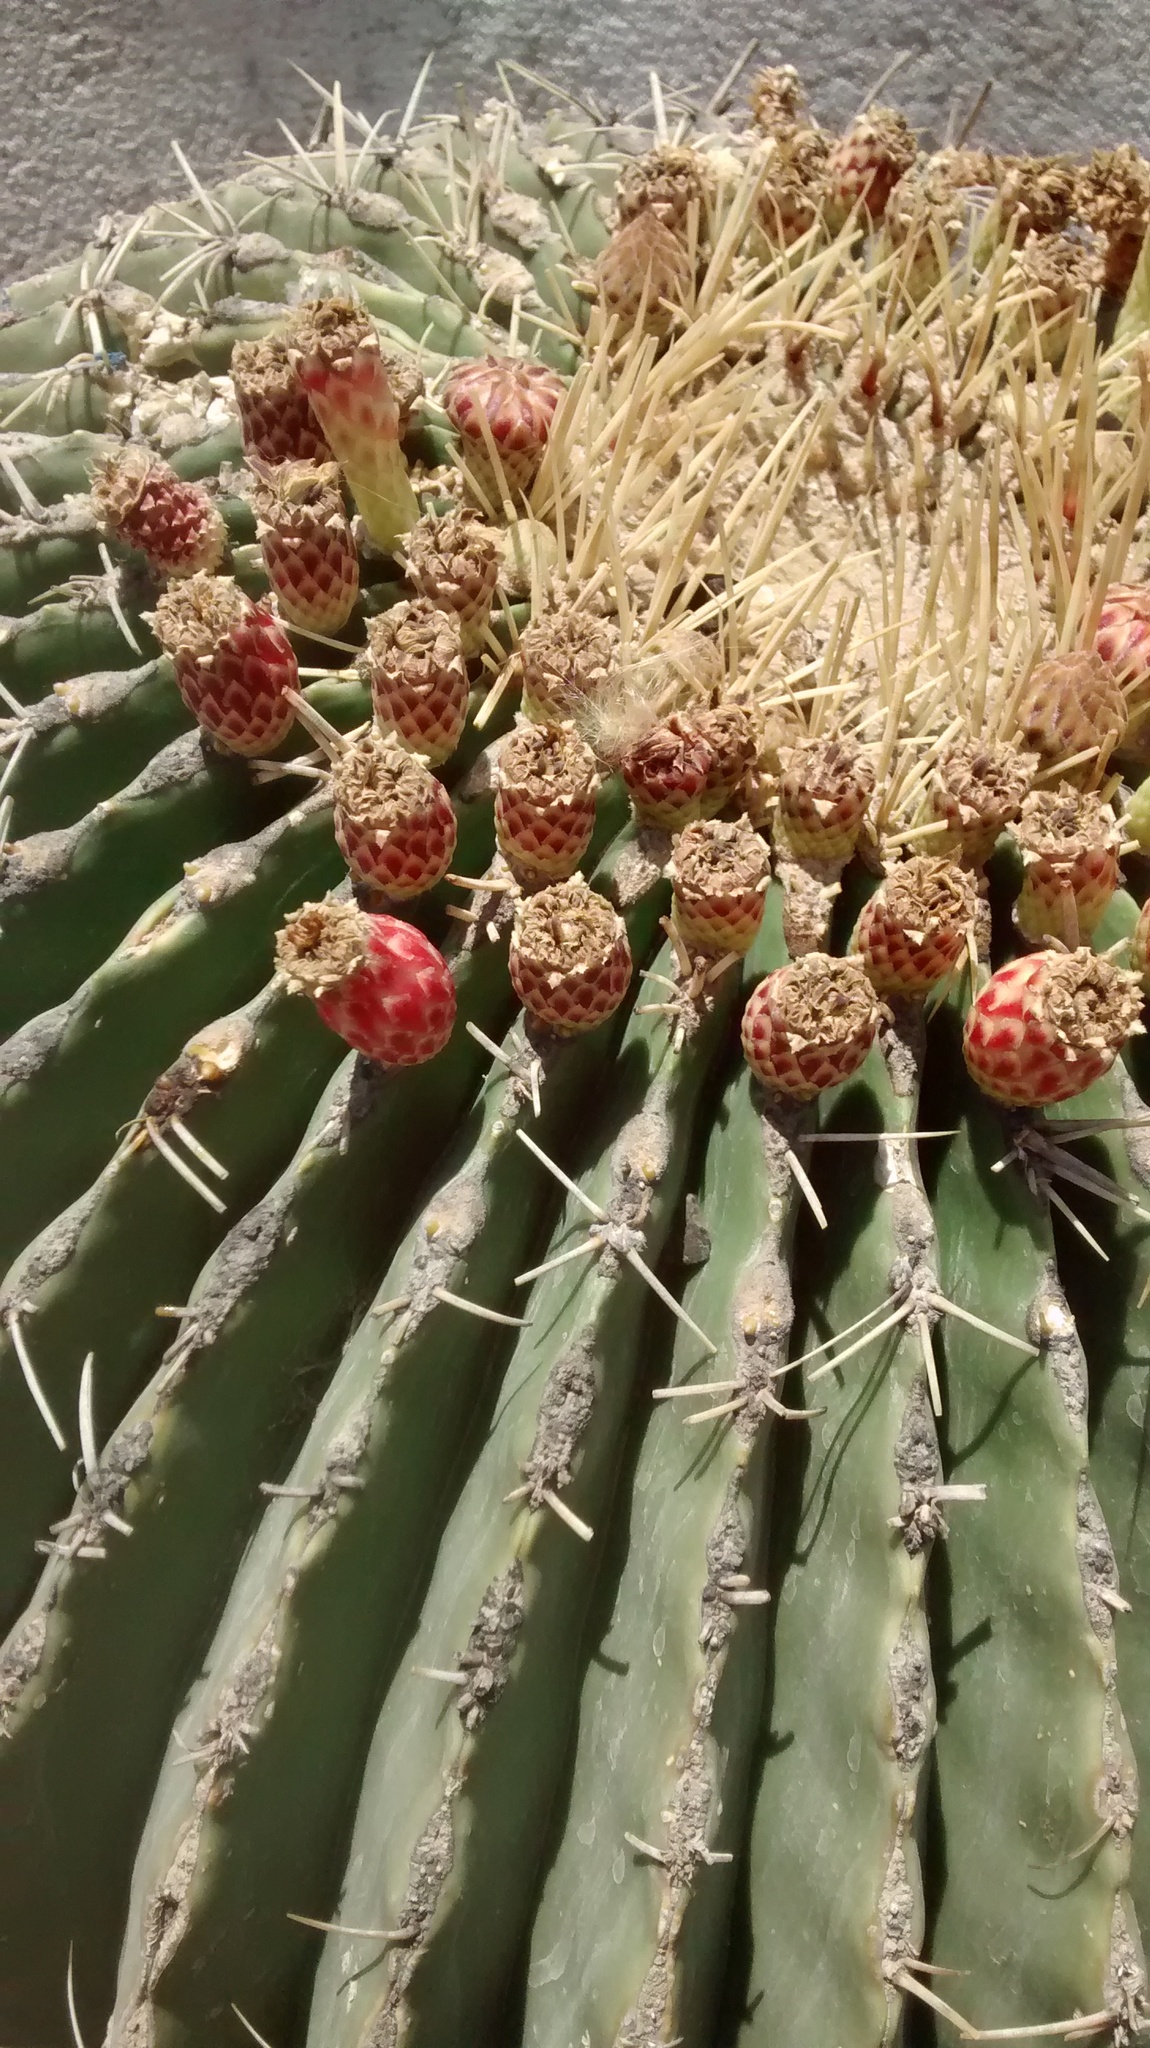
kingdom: Plantae
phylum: Tracheophyta
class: Magnoliopsida
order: Caryophyllales
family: Cactaceae
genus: Bisnaga
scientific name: Bisnaga histrix
